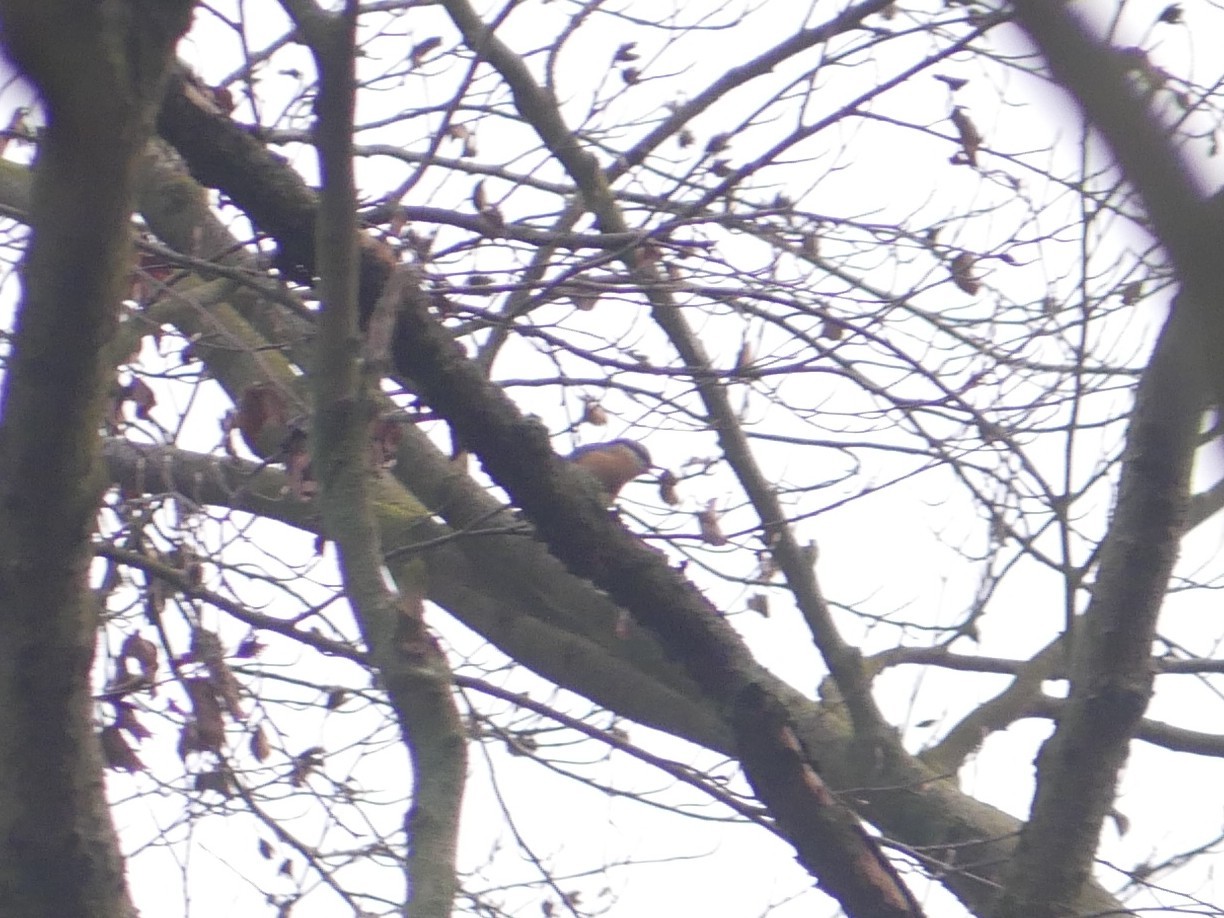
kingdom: Animalia
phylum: Chordata
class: Aves
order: Passeriformes
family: Sittidae
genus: Sitta
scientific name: Sitta europaea
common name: Eurasian nuthatch
